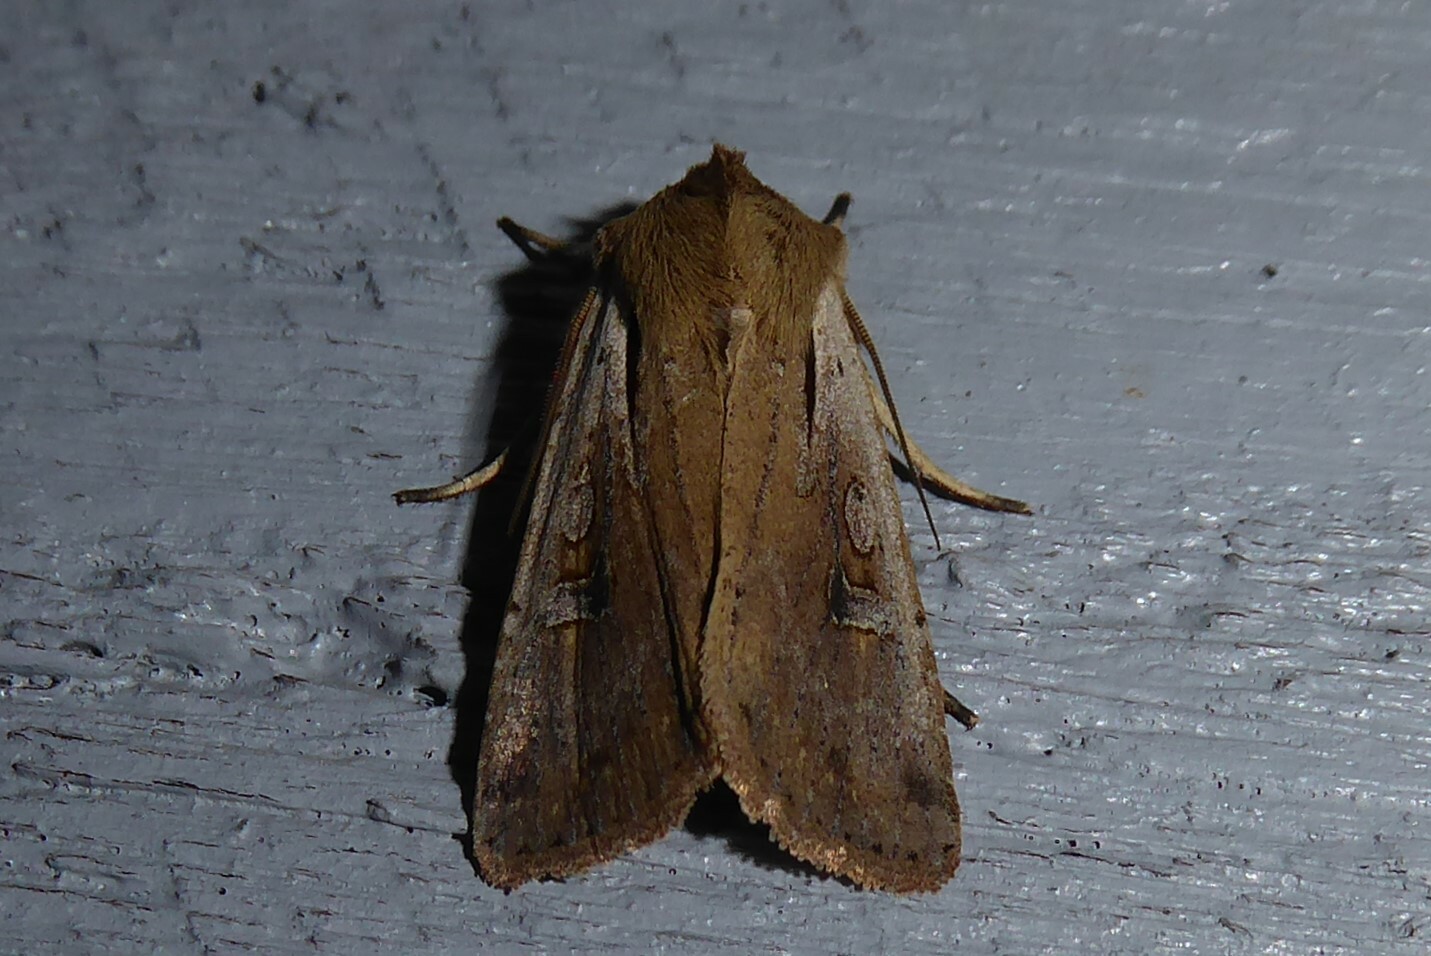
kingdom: Animalia
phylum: Arthropoda
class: Insecta
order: Lepidoptera
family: Noctuidae
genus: Ichneutica
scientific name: Ichneutica atristriga
